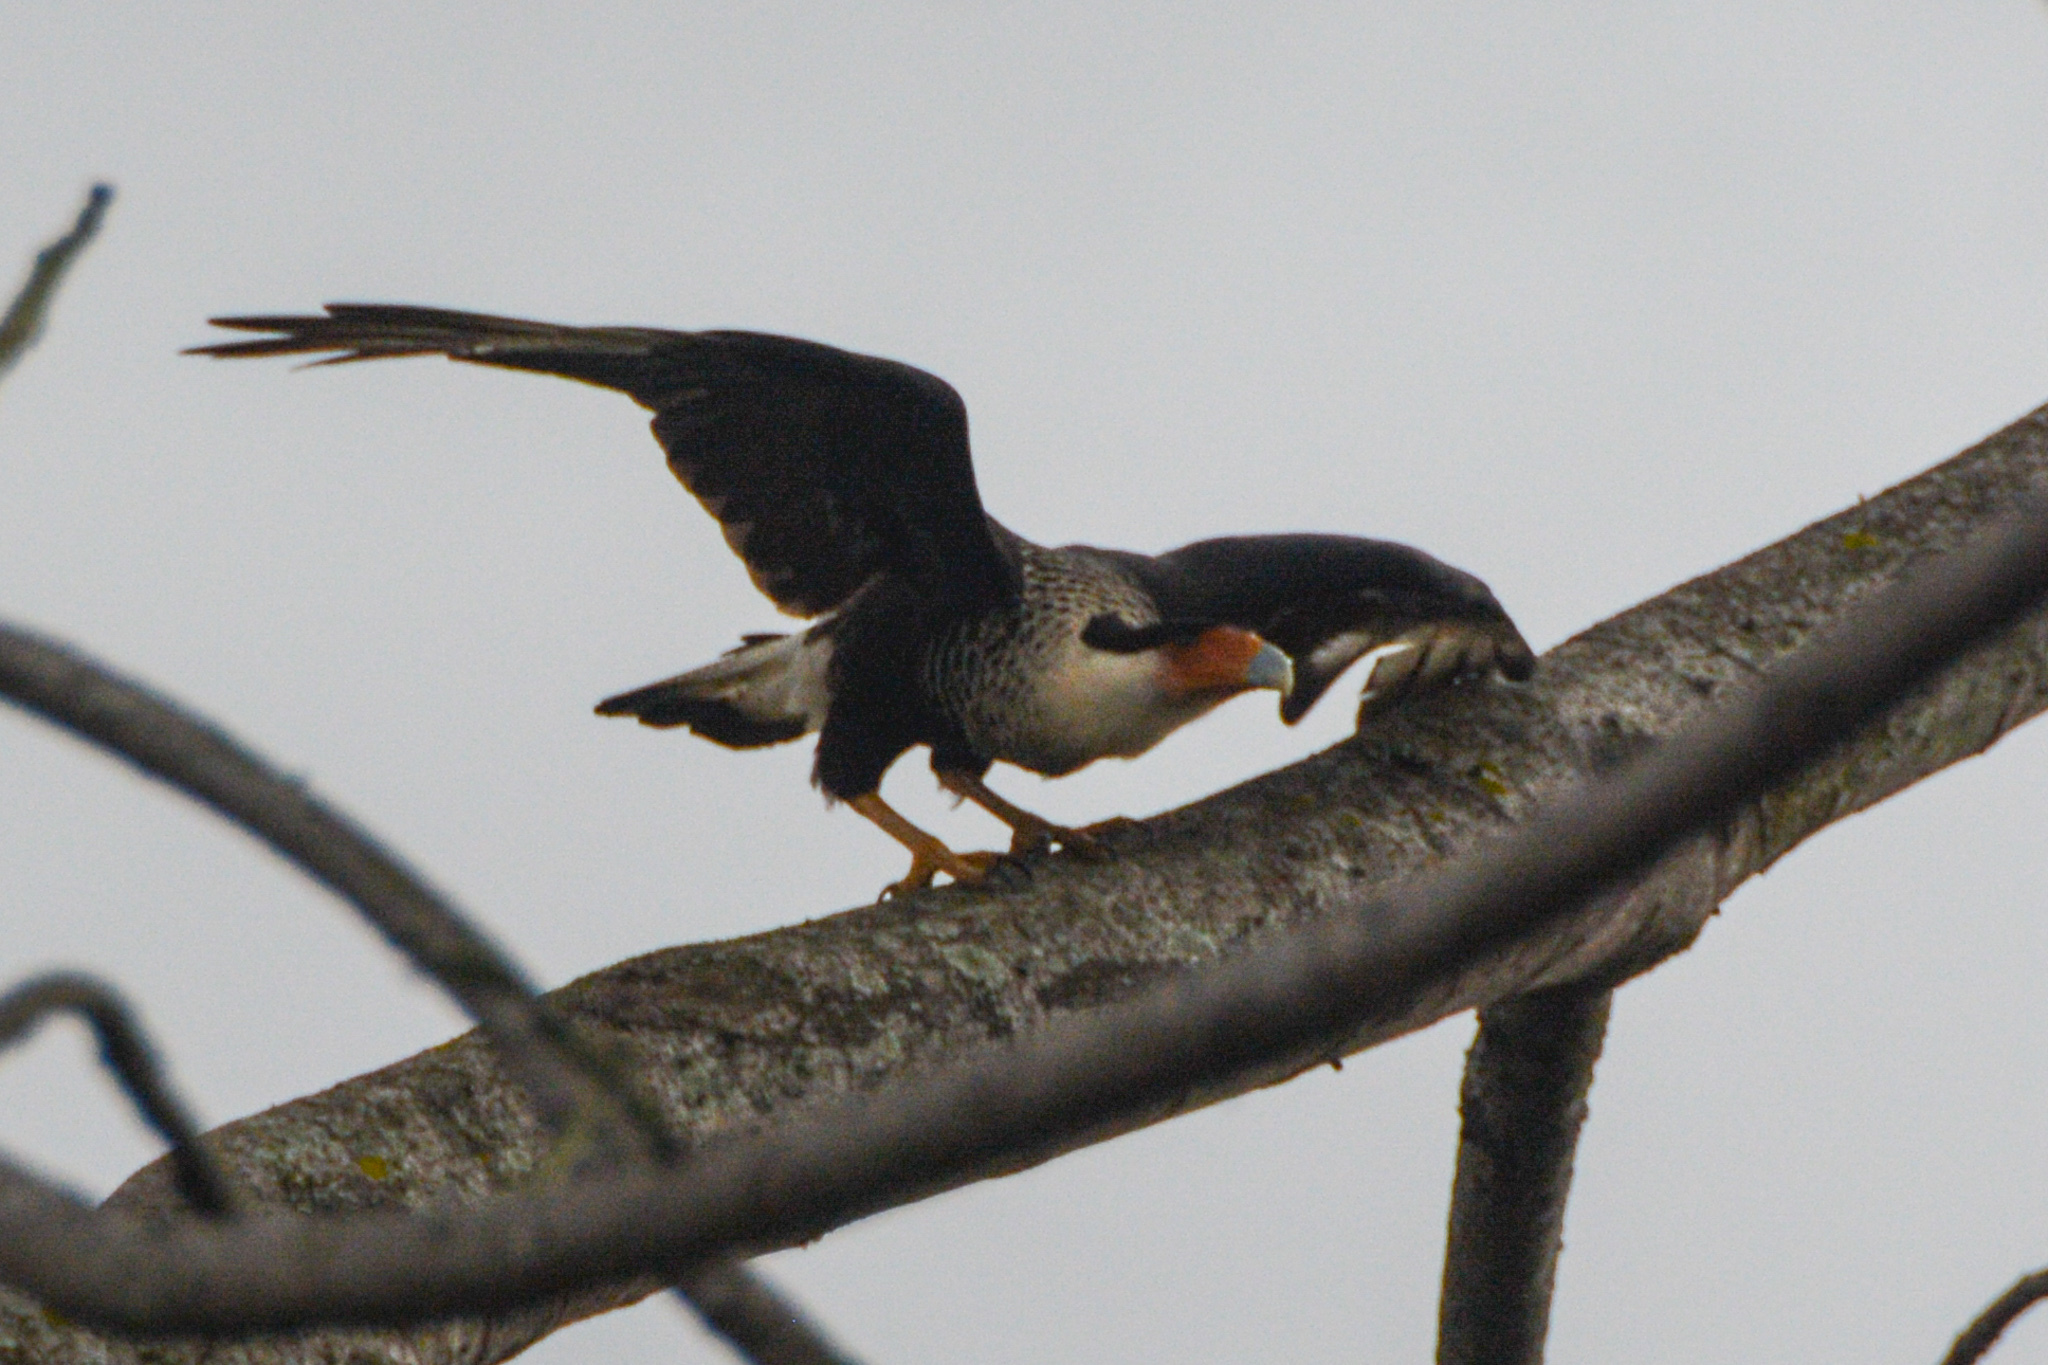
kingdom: Animalia
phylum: Chordata
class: Aves
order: Falconiformes
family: Falconidae
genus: Caracara
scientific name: Caracara plancus
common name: Southern caracara
